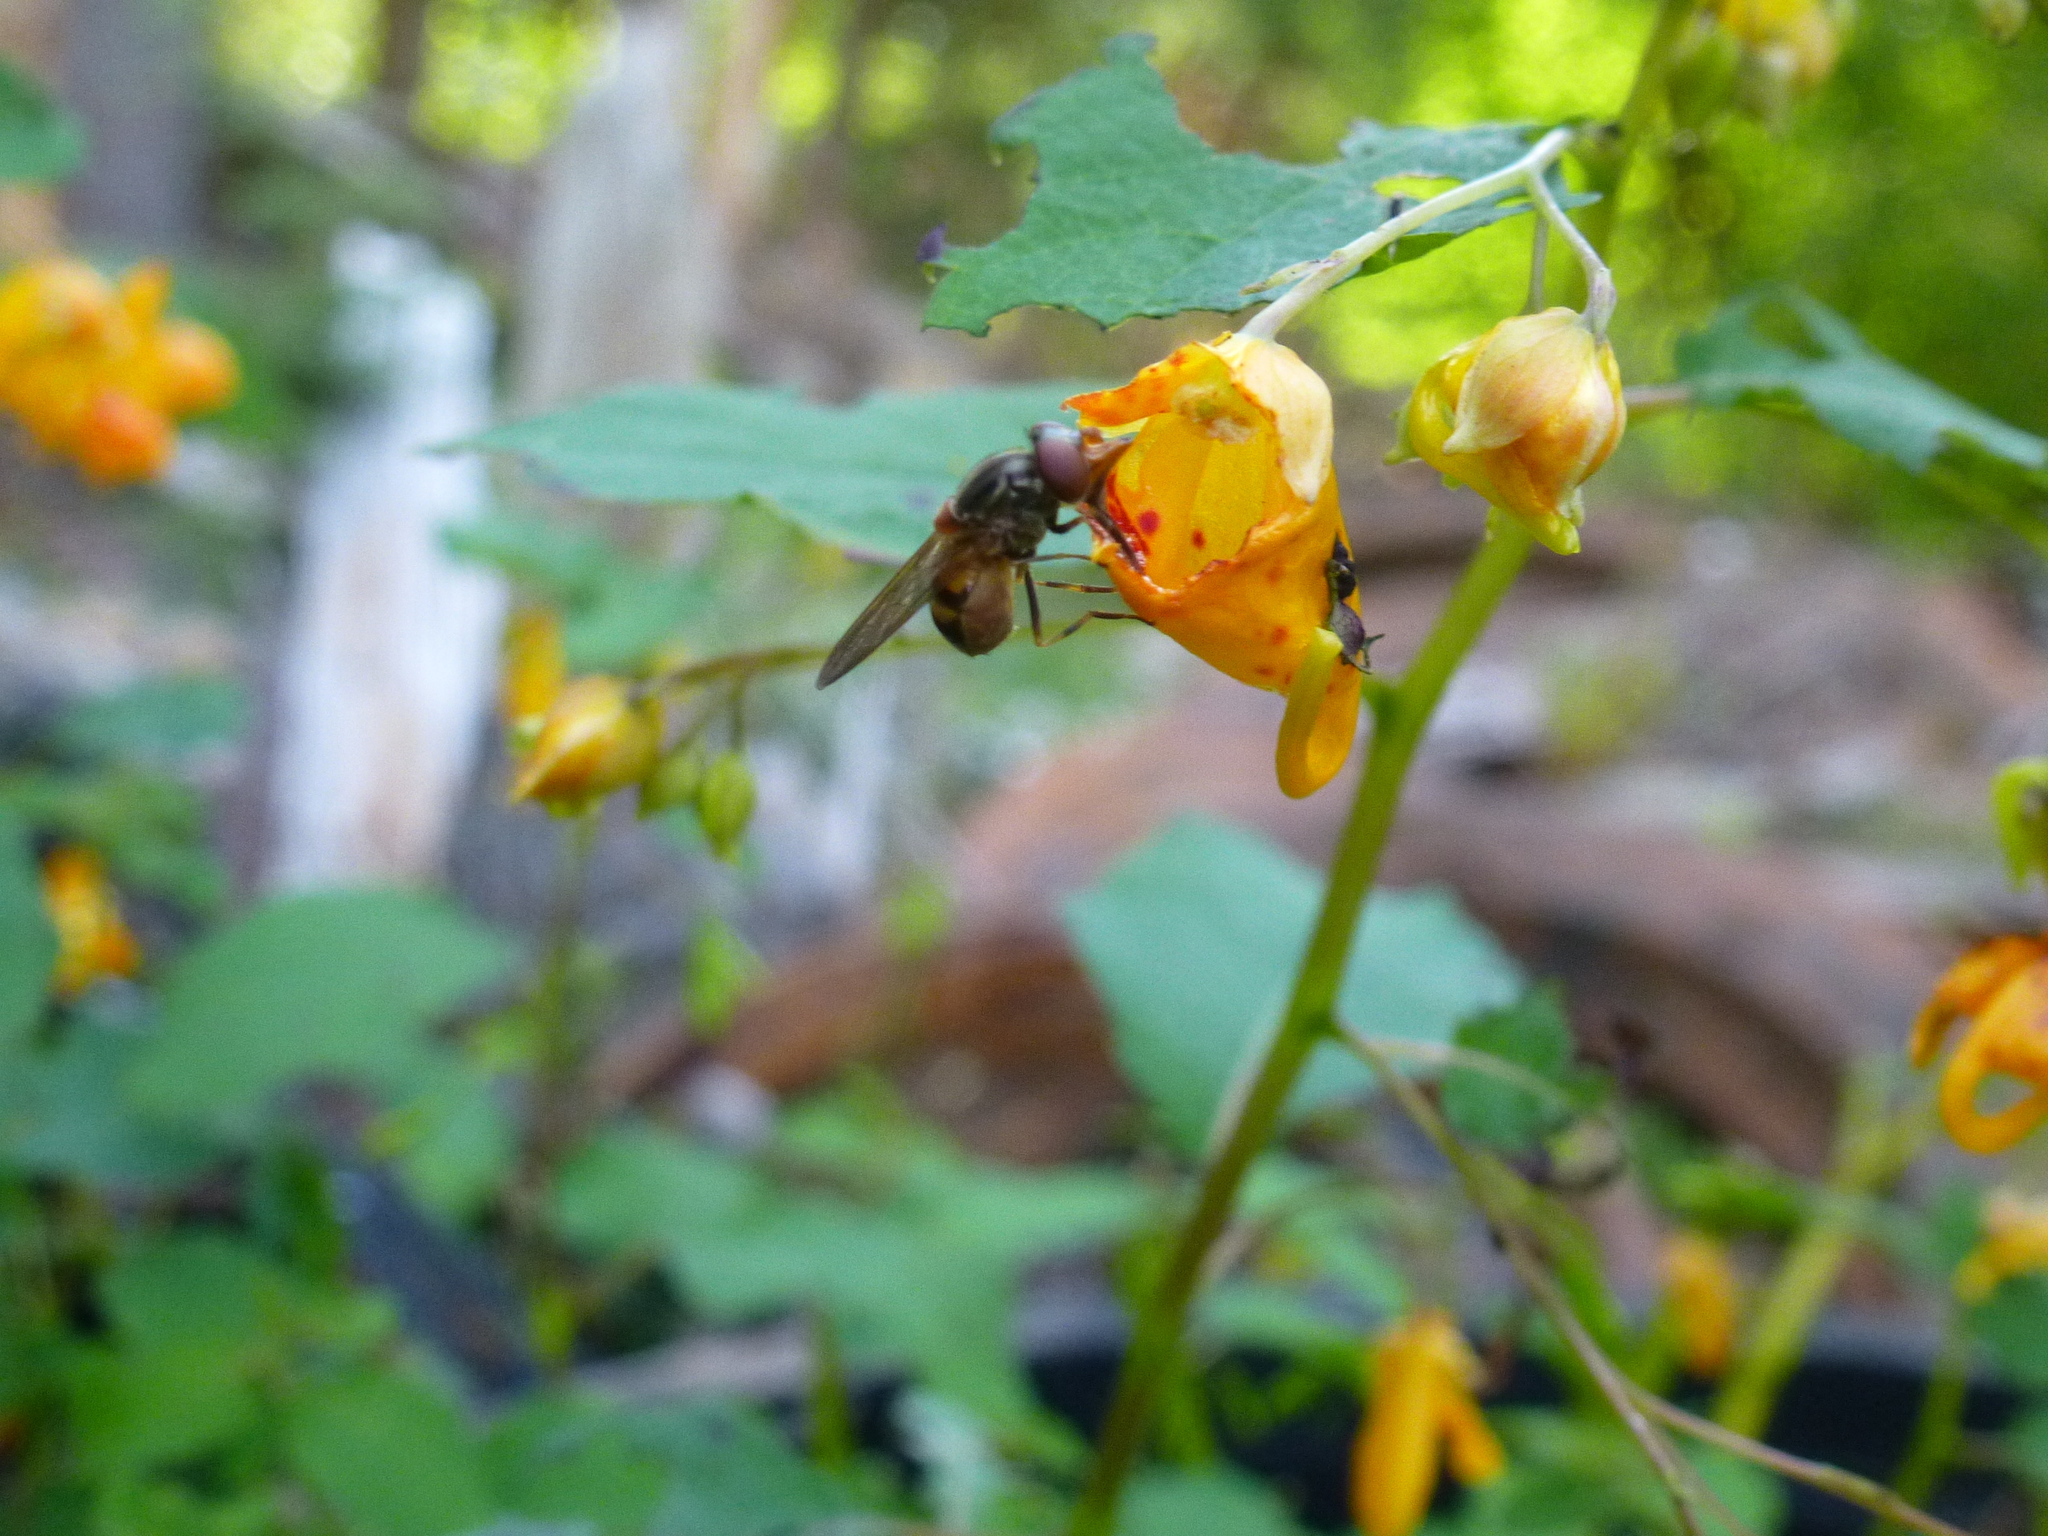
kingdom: Animalia
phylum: Arthropoda
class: Insecta
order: Diptera
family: Syrphidae
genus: Rhingia
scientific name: Rhingia nasica
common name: American snout fly
